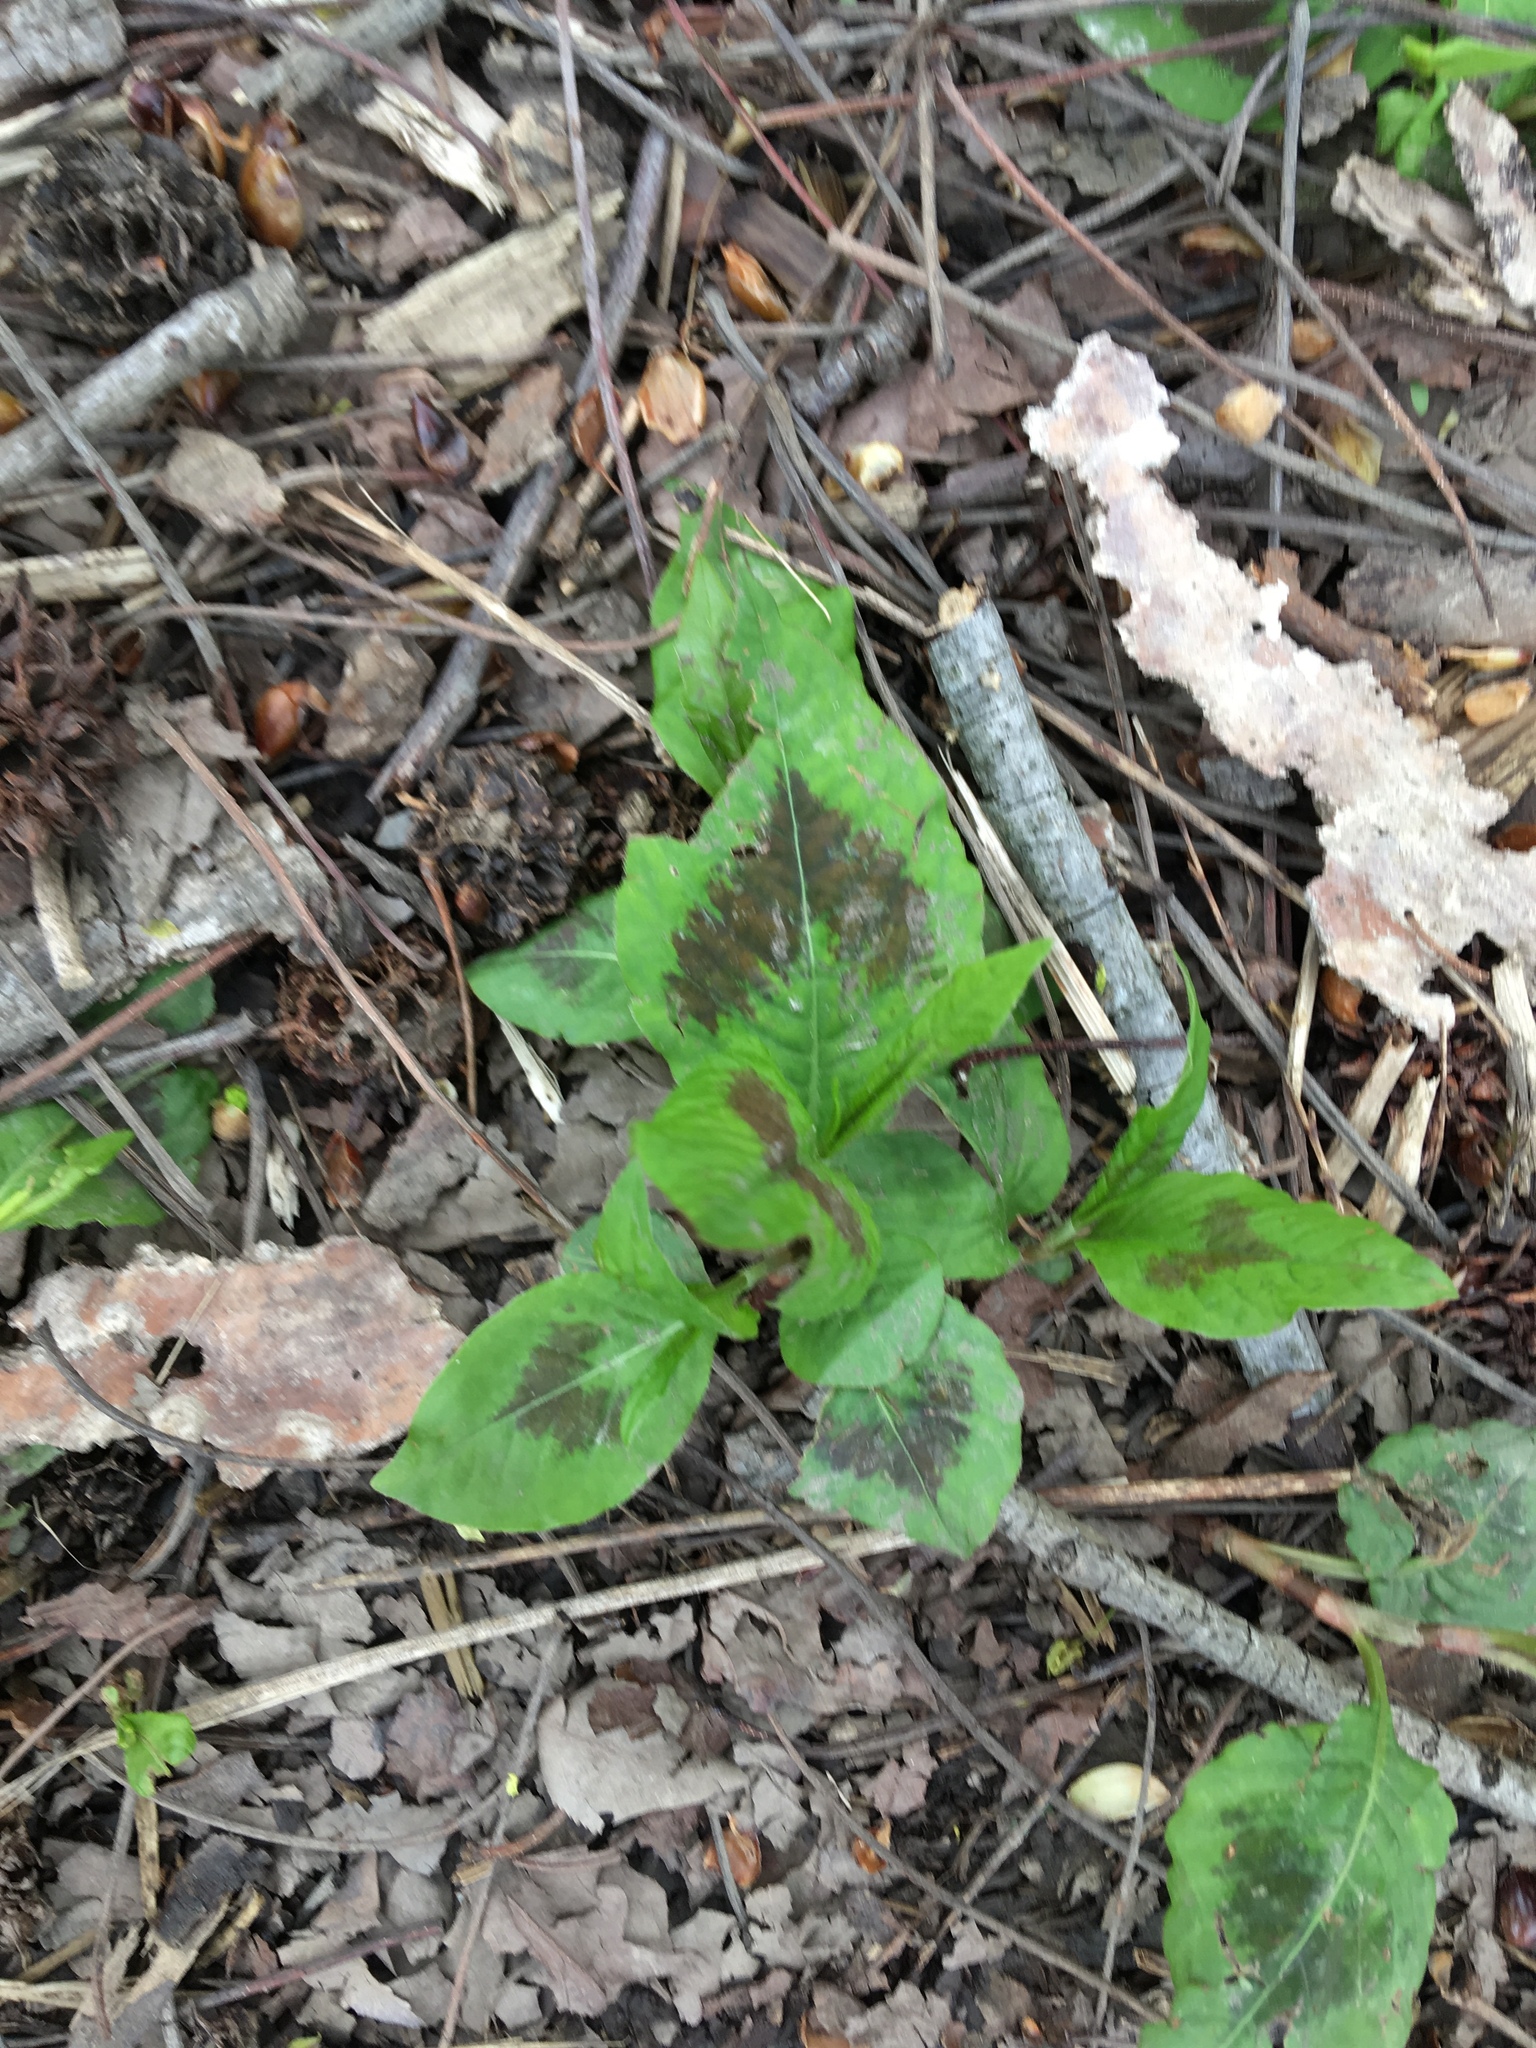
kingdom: Plantae
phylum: Tracheophyta
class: Magnoliopsida
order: Caryophyllales
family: Polygonaceae
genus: Persicaria
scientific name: Persicaria virginiana
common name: Jumpseed
